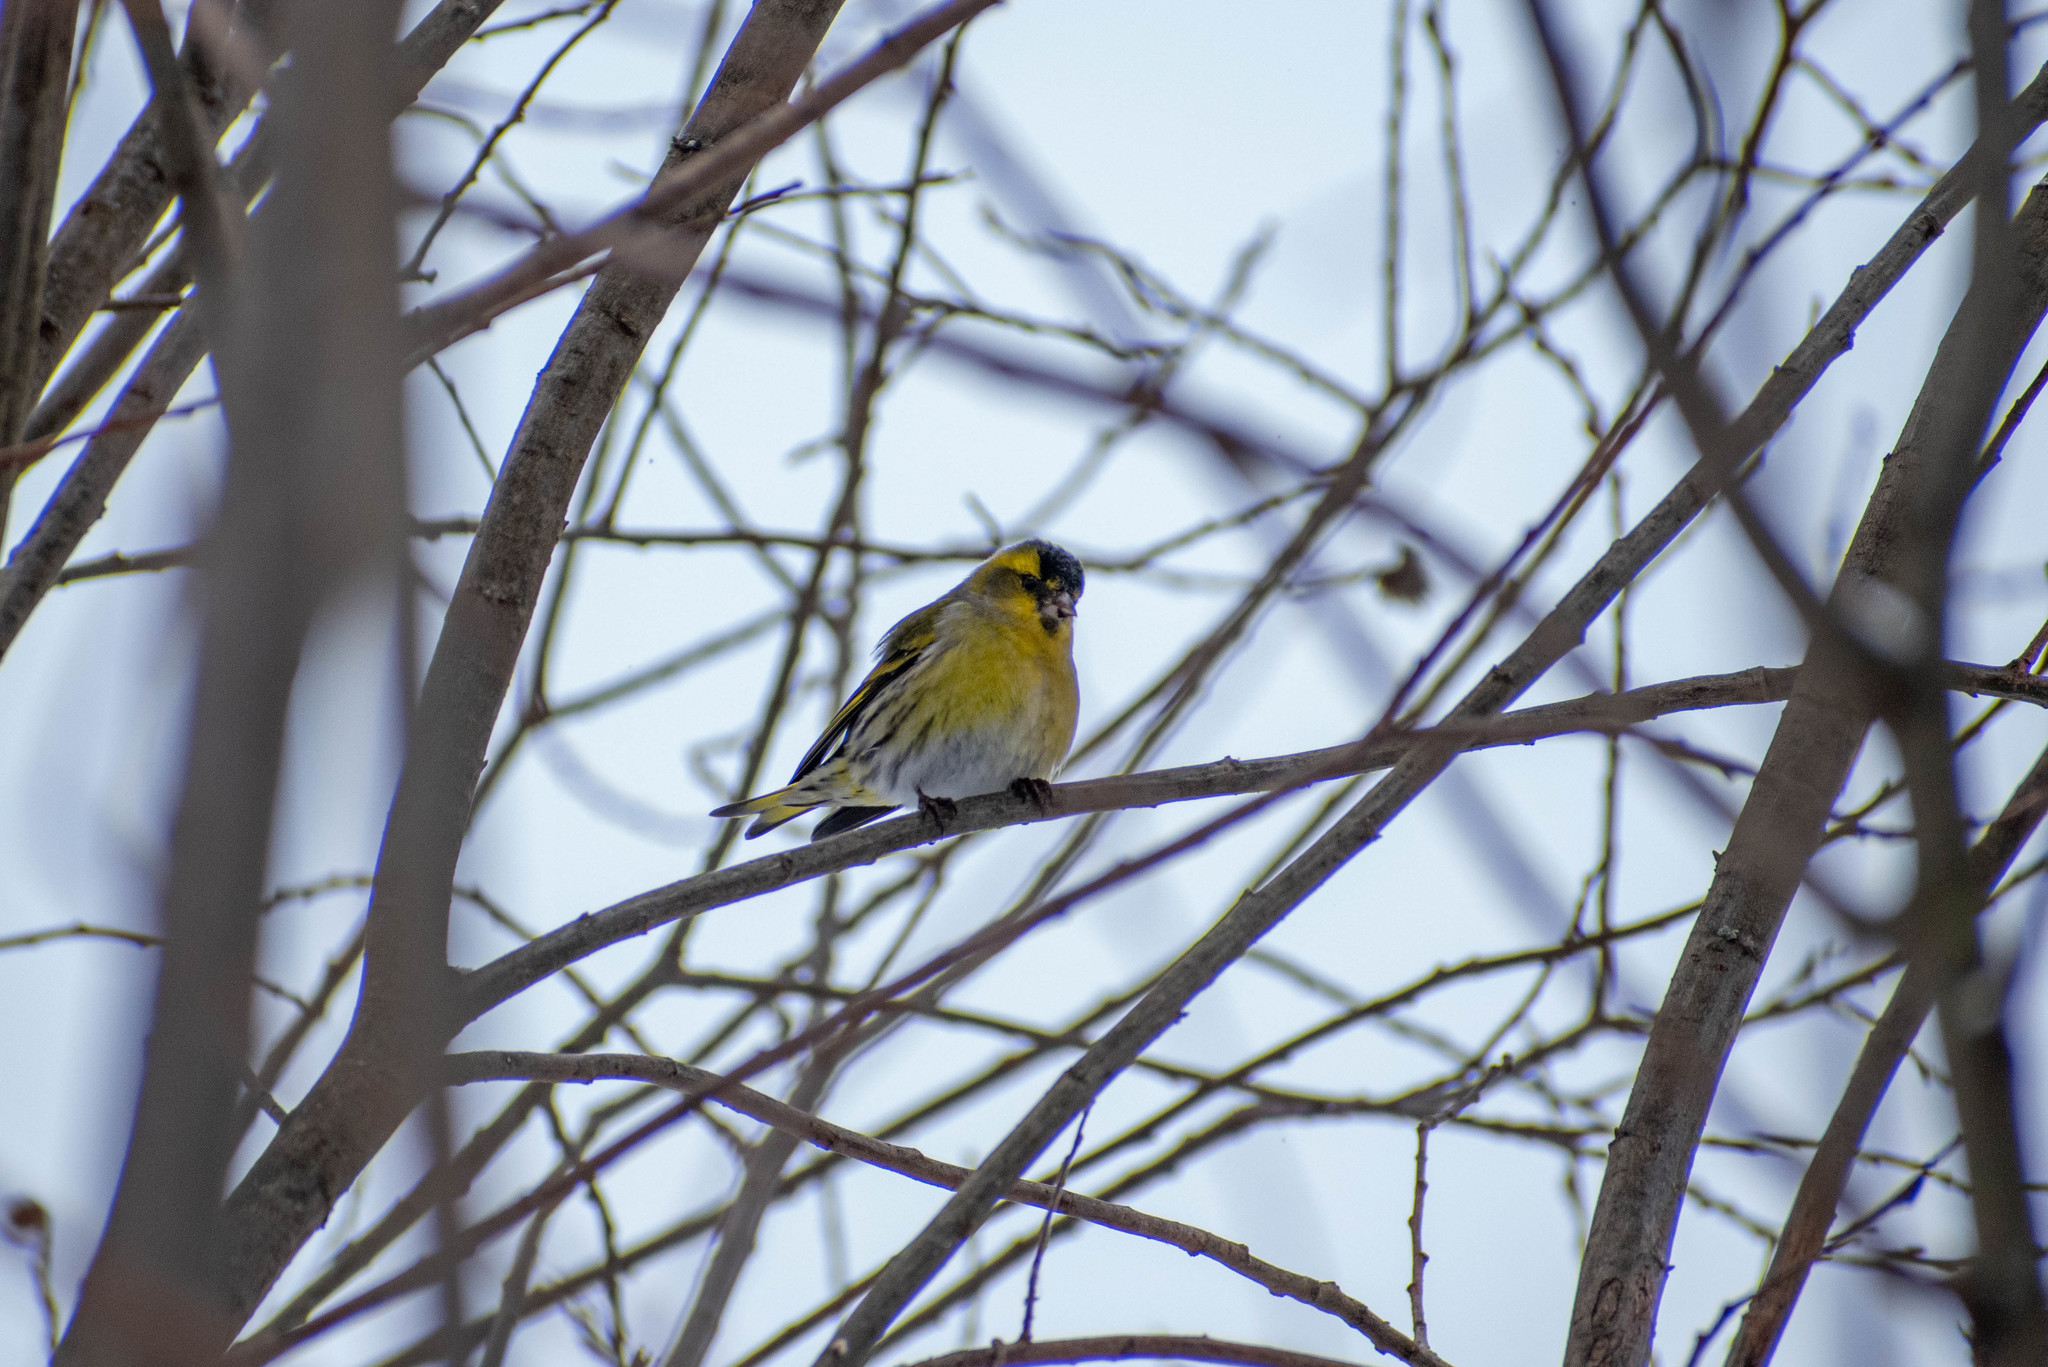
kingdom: Animalia
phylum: Chordata
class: Aves
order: Passeriformes
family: Fringillidae
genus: Spinus
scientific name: Spinus spinus
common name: Eurasian siskin
